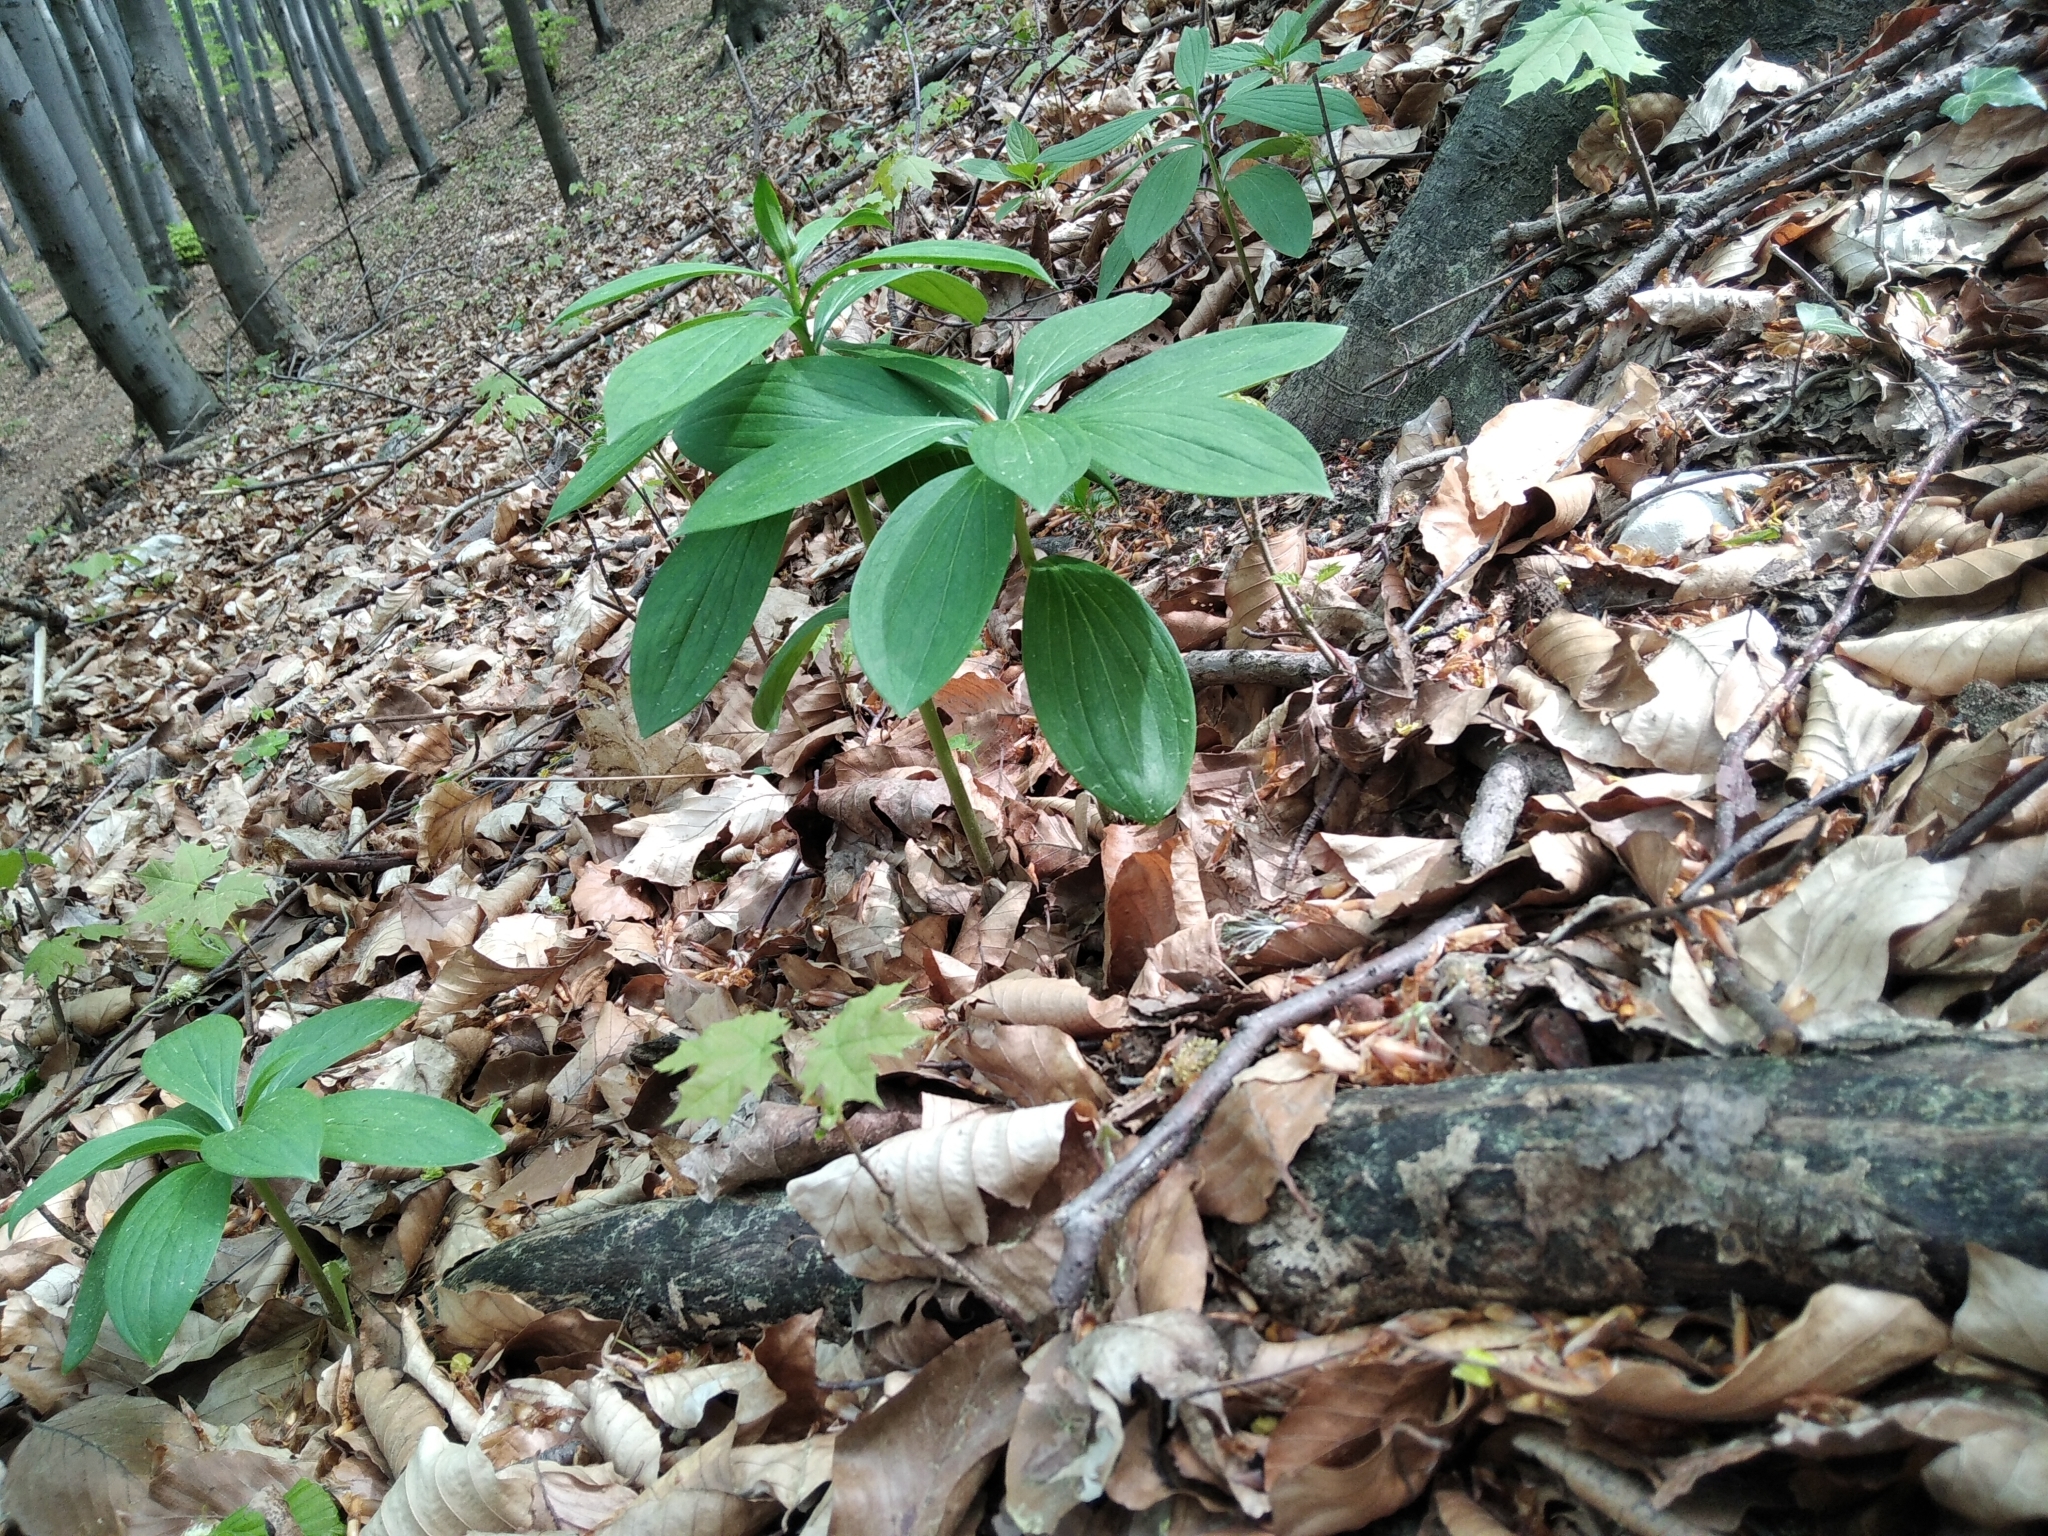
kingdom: Plantae
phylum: Tracheophyta
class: Liliopsida
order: Liliales
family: Liliaceae
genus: Lilium
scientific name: Lilium martagon
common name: Martagon lily
